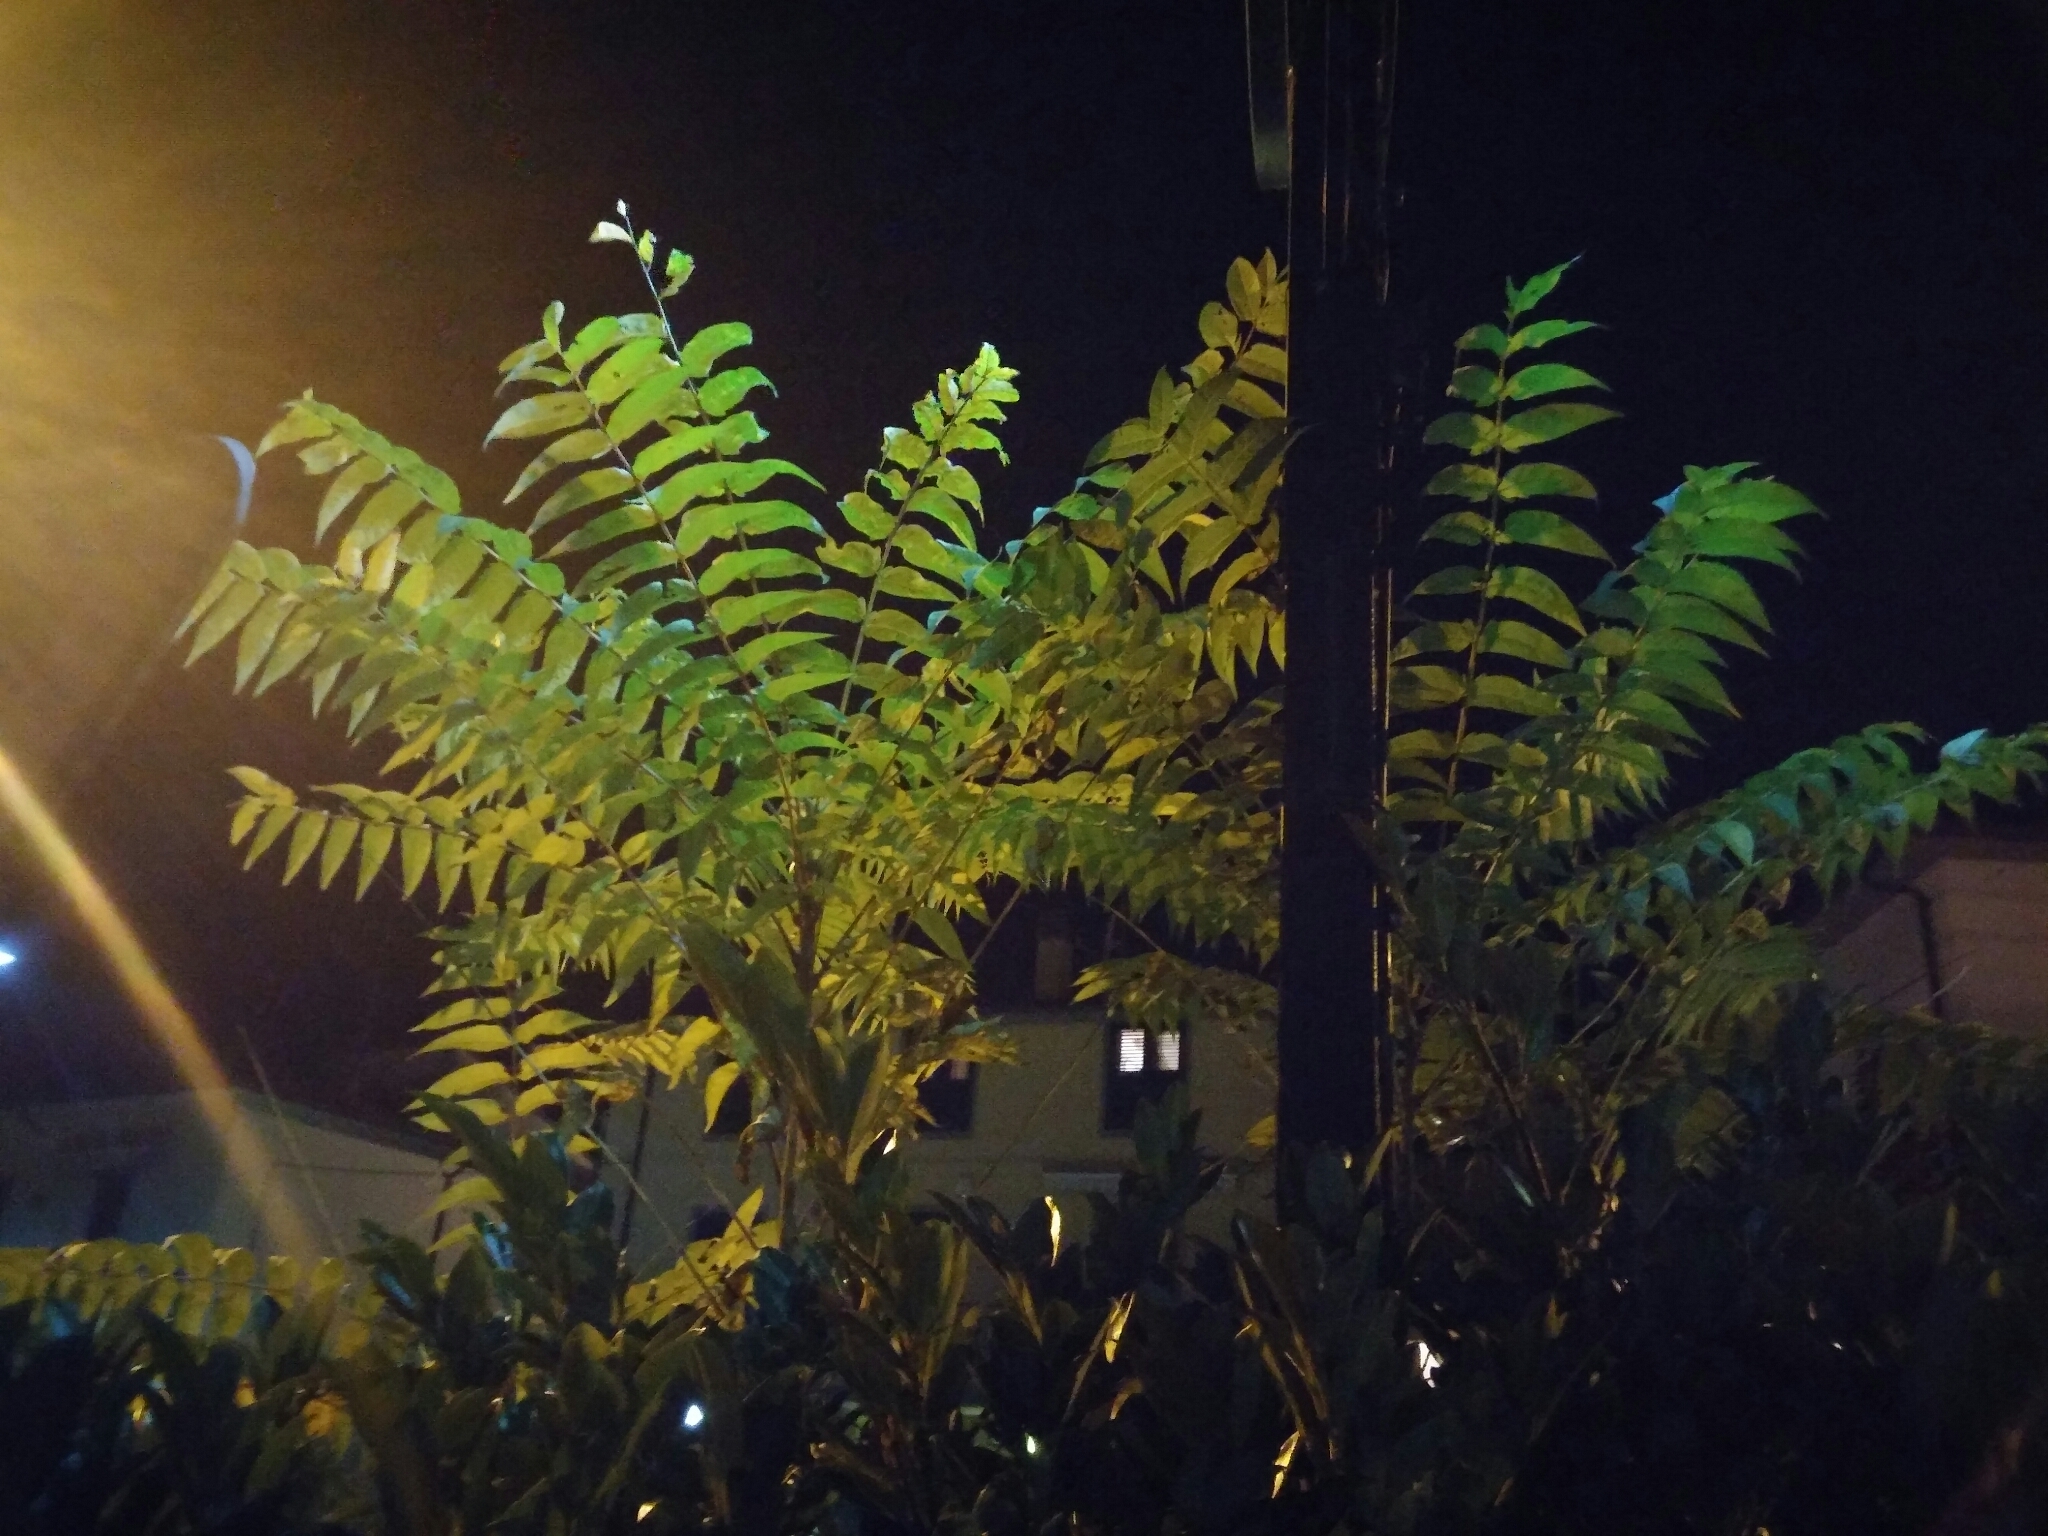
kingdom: Plantae
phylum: Tracheophyta
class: Magnoliopsida
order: Sapindales
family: Simaroubaceae
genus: Ailanthus
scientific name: Ailanthus altissima
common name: Tree-of-heaven
